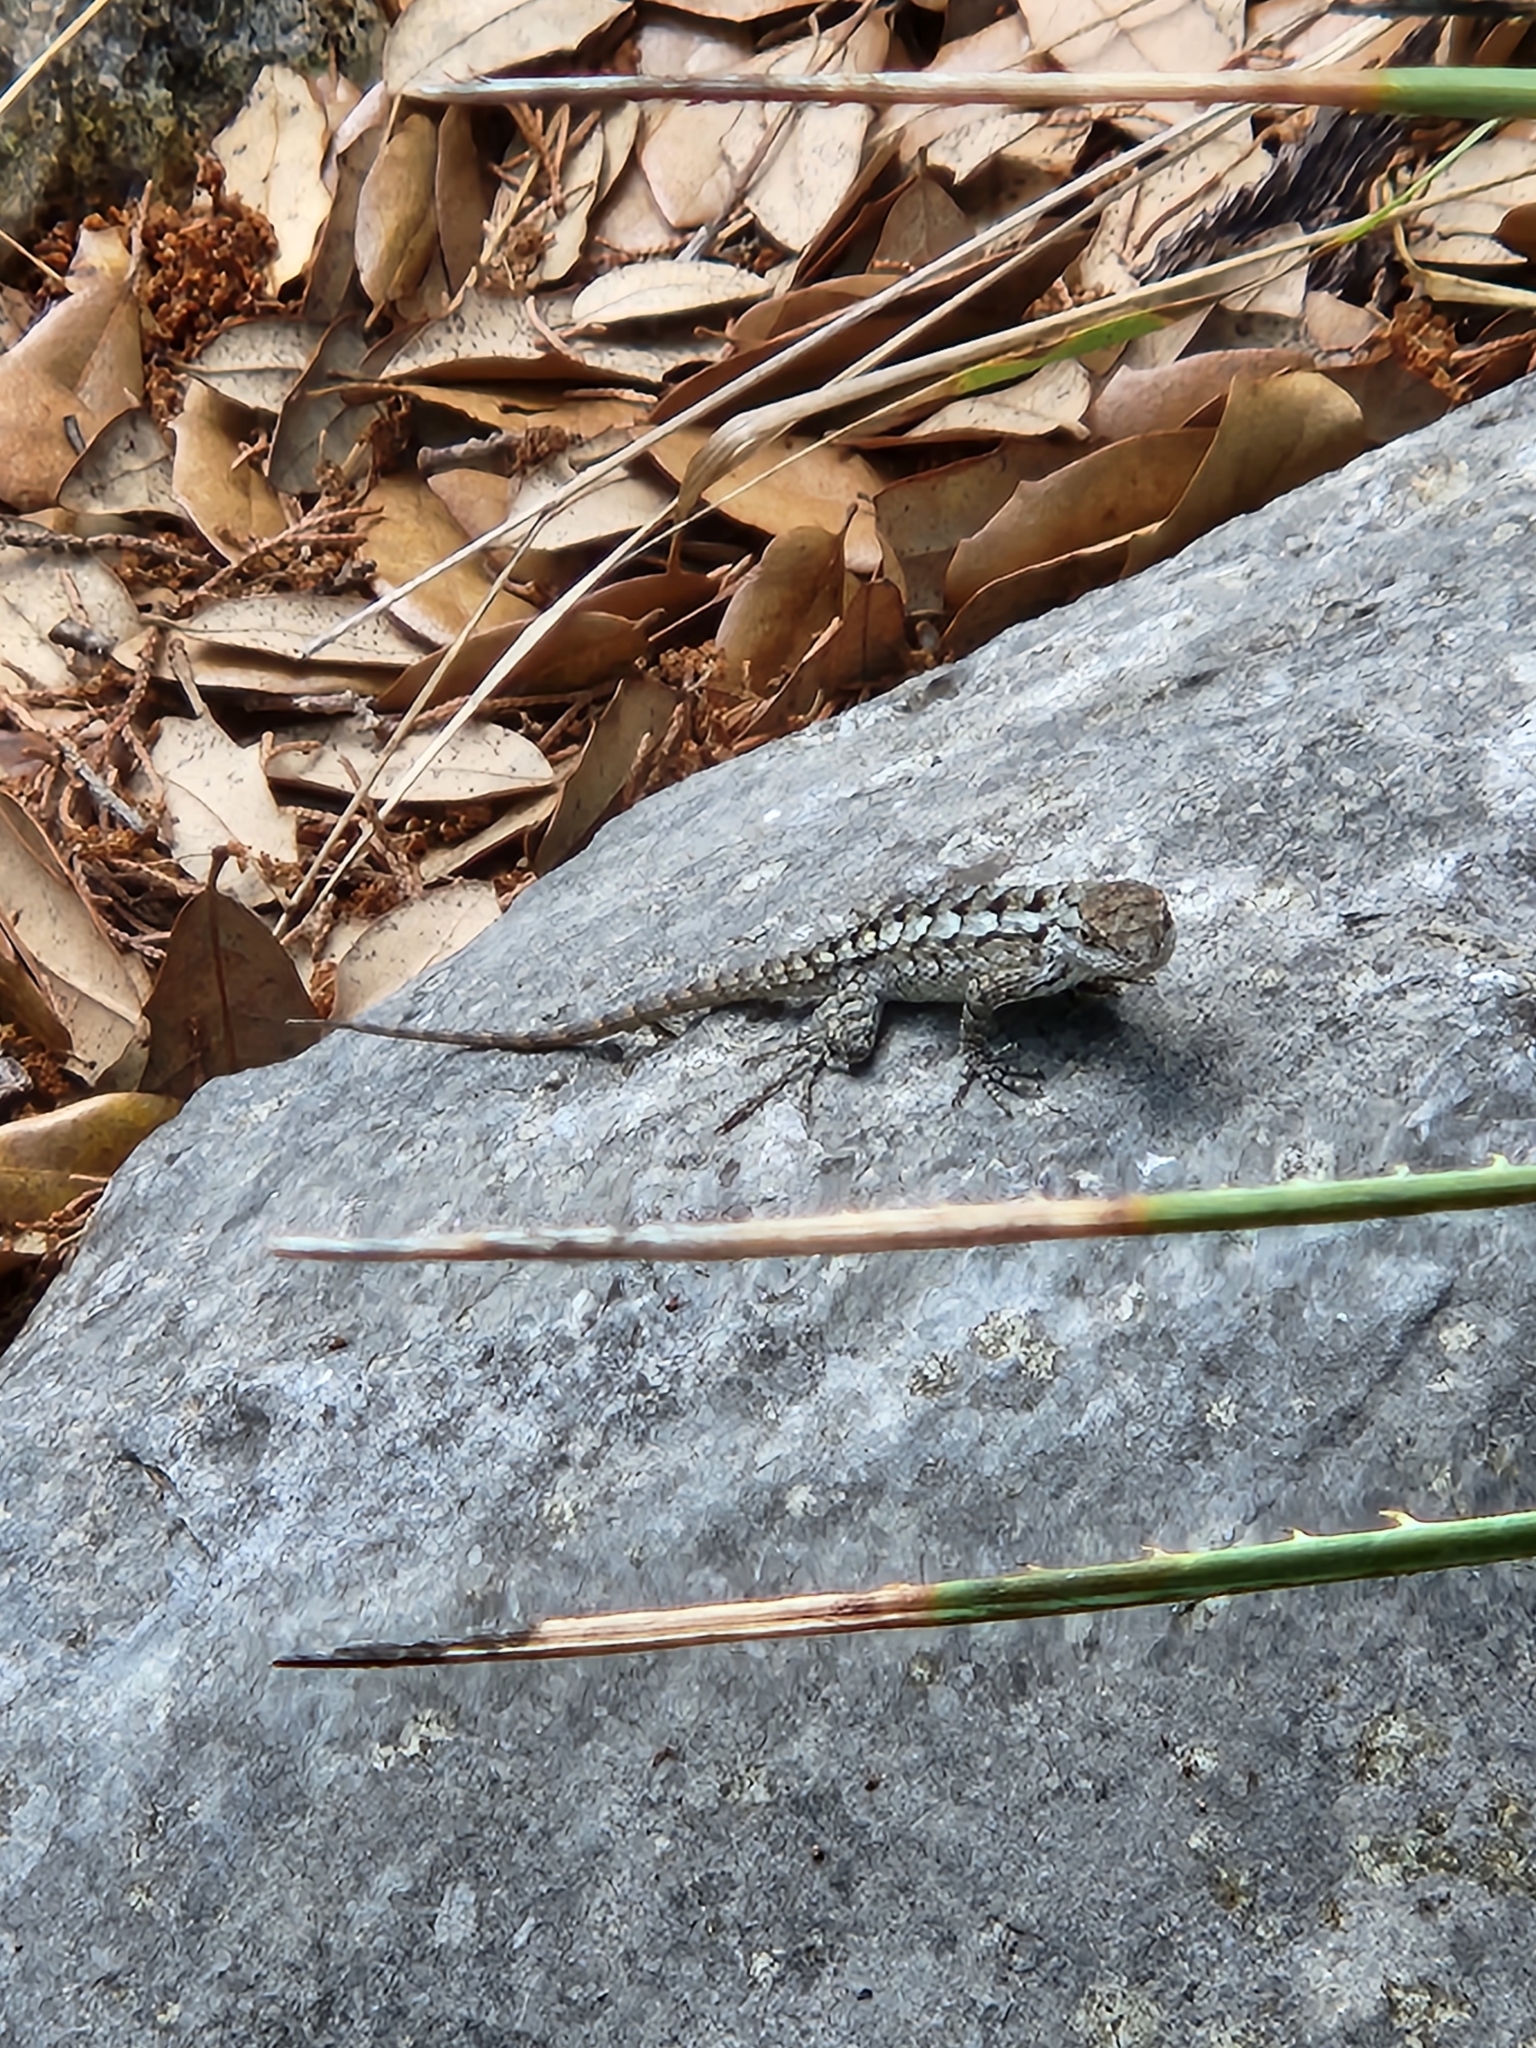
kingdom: Animalia
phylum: Chordata
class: Squamata
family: Phrynosomatidae
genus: Sceloporus
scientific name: Sceloporus olivaceus
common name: Texas spiny lizard
